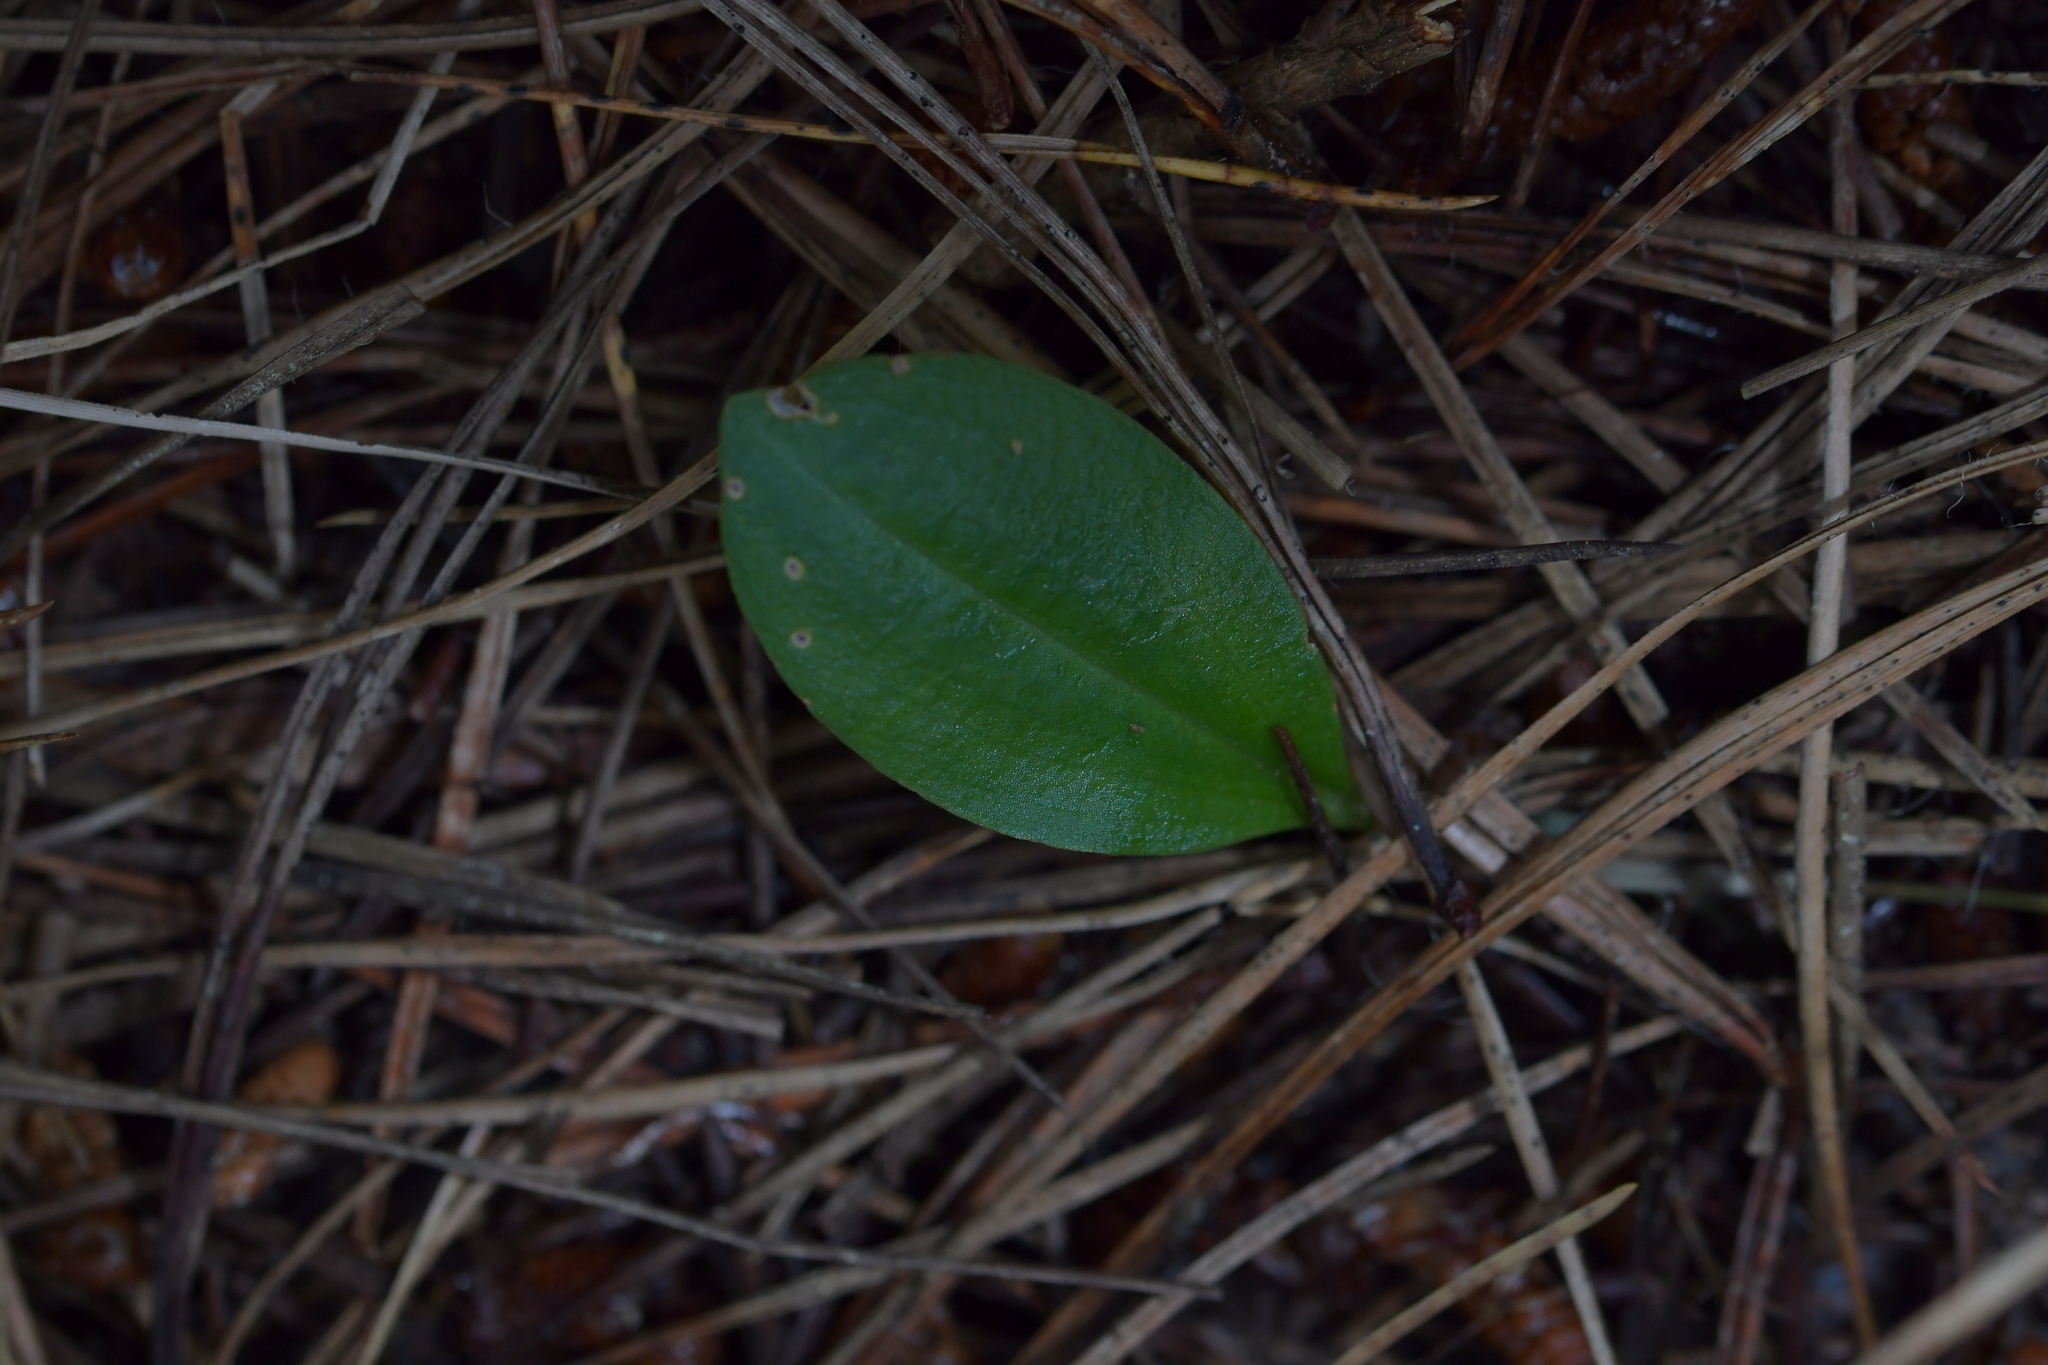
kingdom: Plantae
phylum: Tracheophyta
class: Liliopsida
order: Asparagales
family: Orchidaceae
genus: Chiloglottis
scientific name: Chiloglottis cornuta
